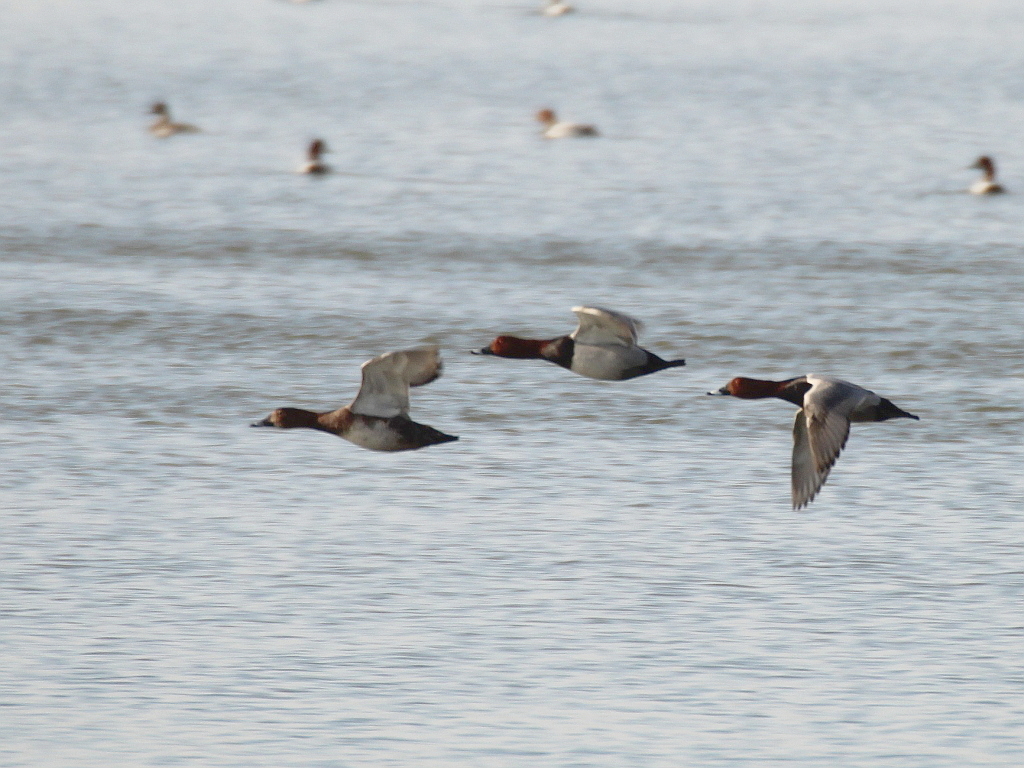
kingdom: Animalia
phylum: Chordata
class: Aves
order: Anseriformes
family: Anatidae
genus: Aythya
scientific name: Aythya ferina
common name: Common pochard
